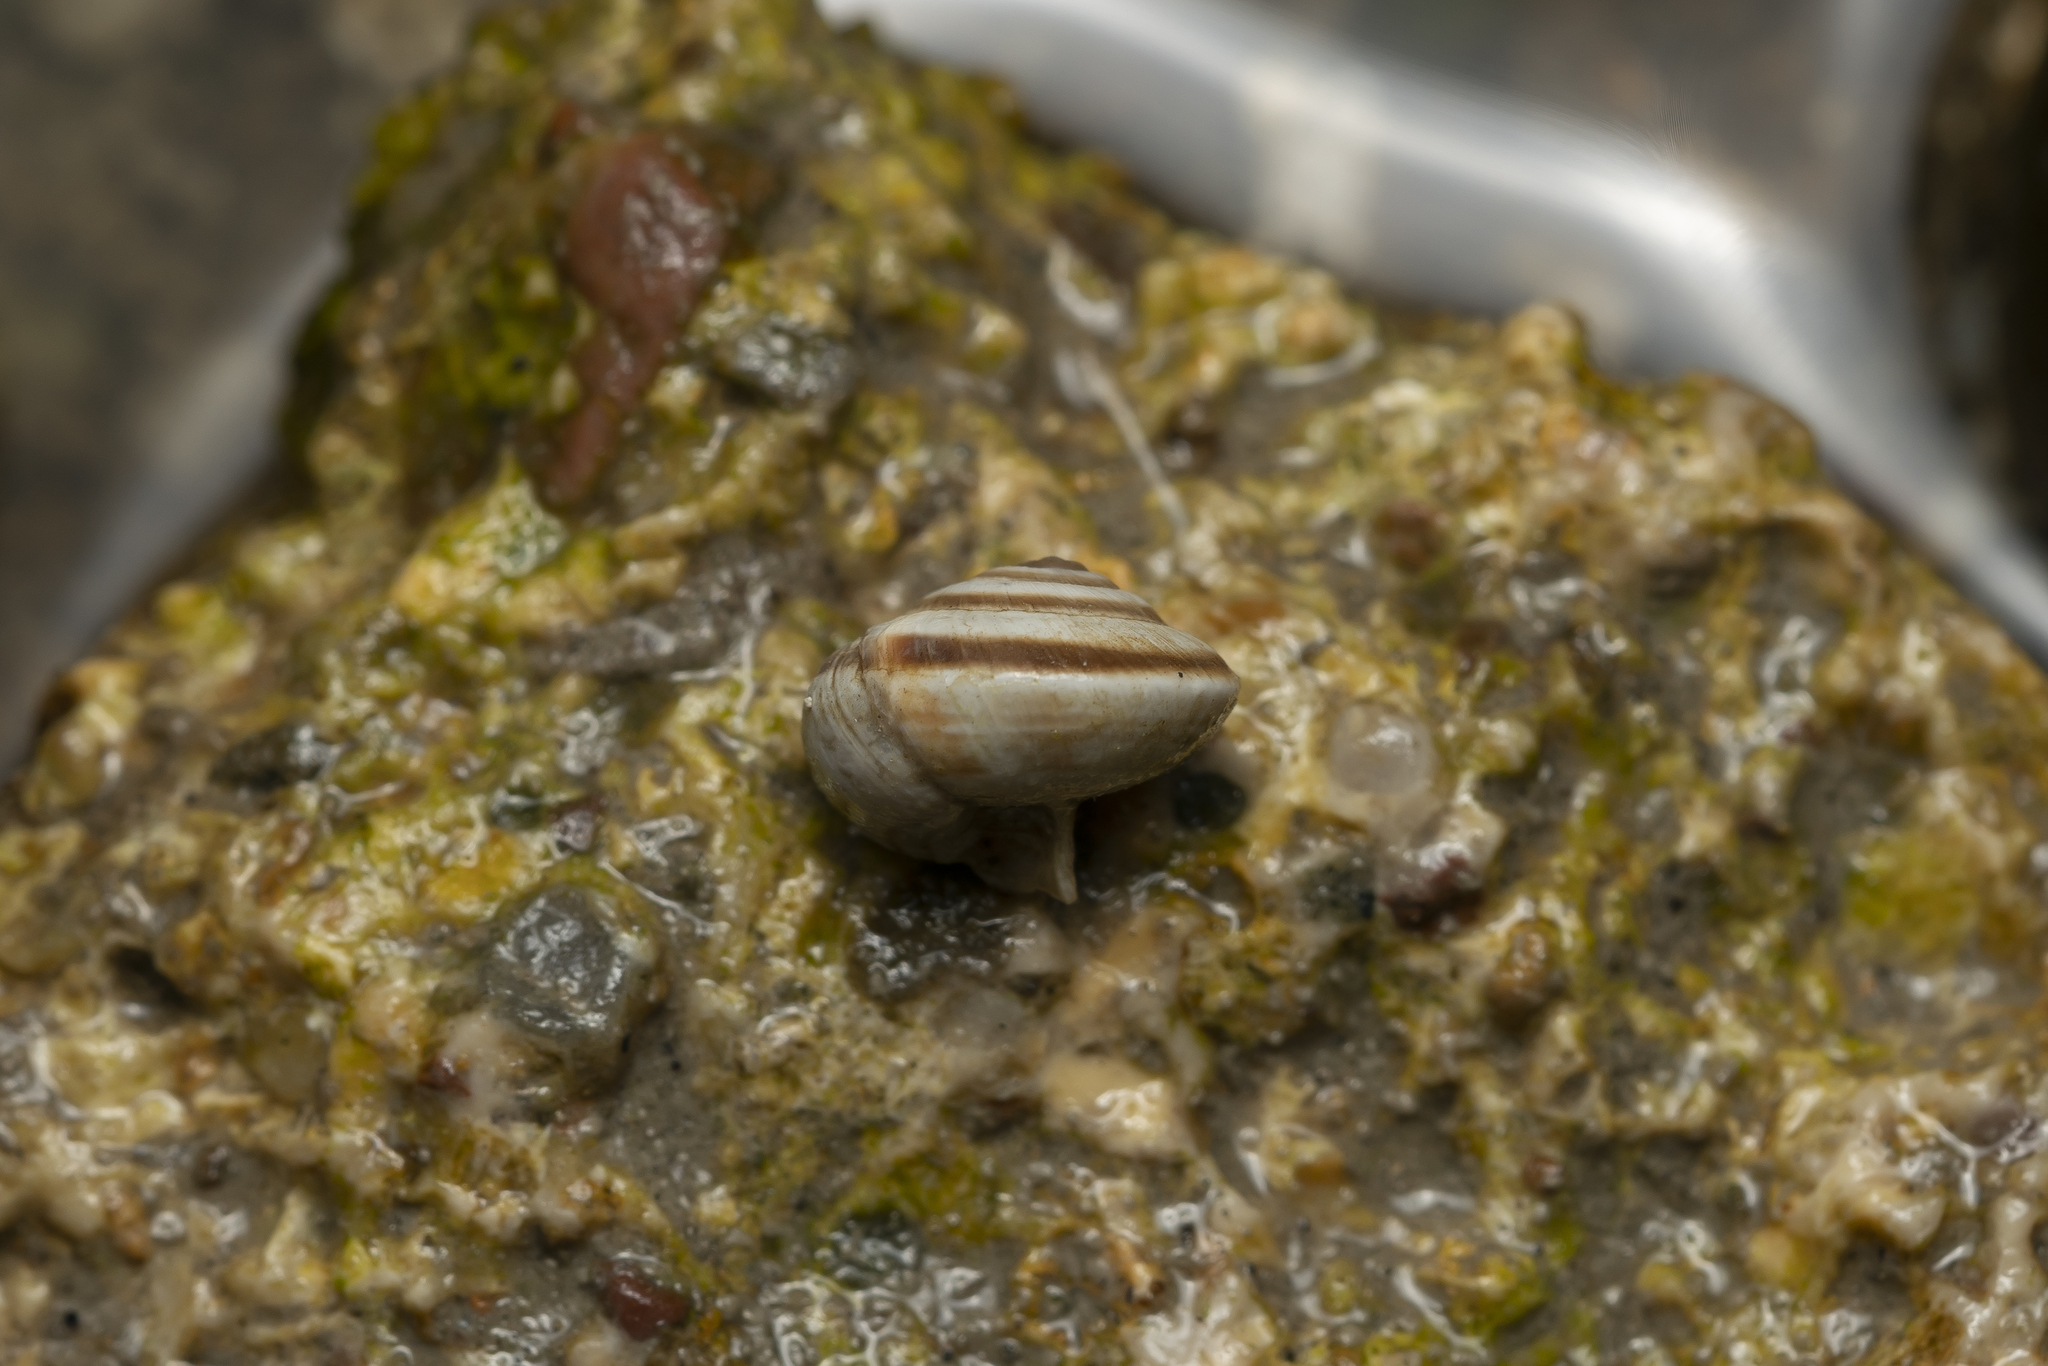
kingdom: Animalia
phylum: Mollusca
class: Gastropoda
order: Stylommatophora
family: Geomitridae
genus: Cernuella
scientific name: Cernuella virgata
